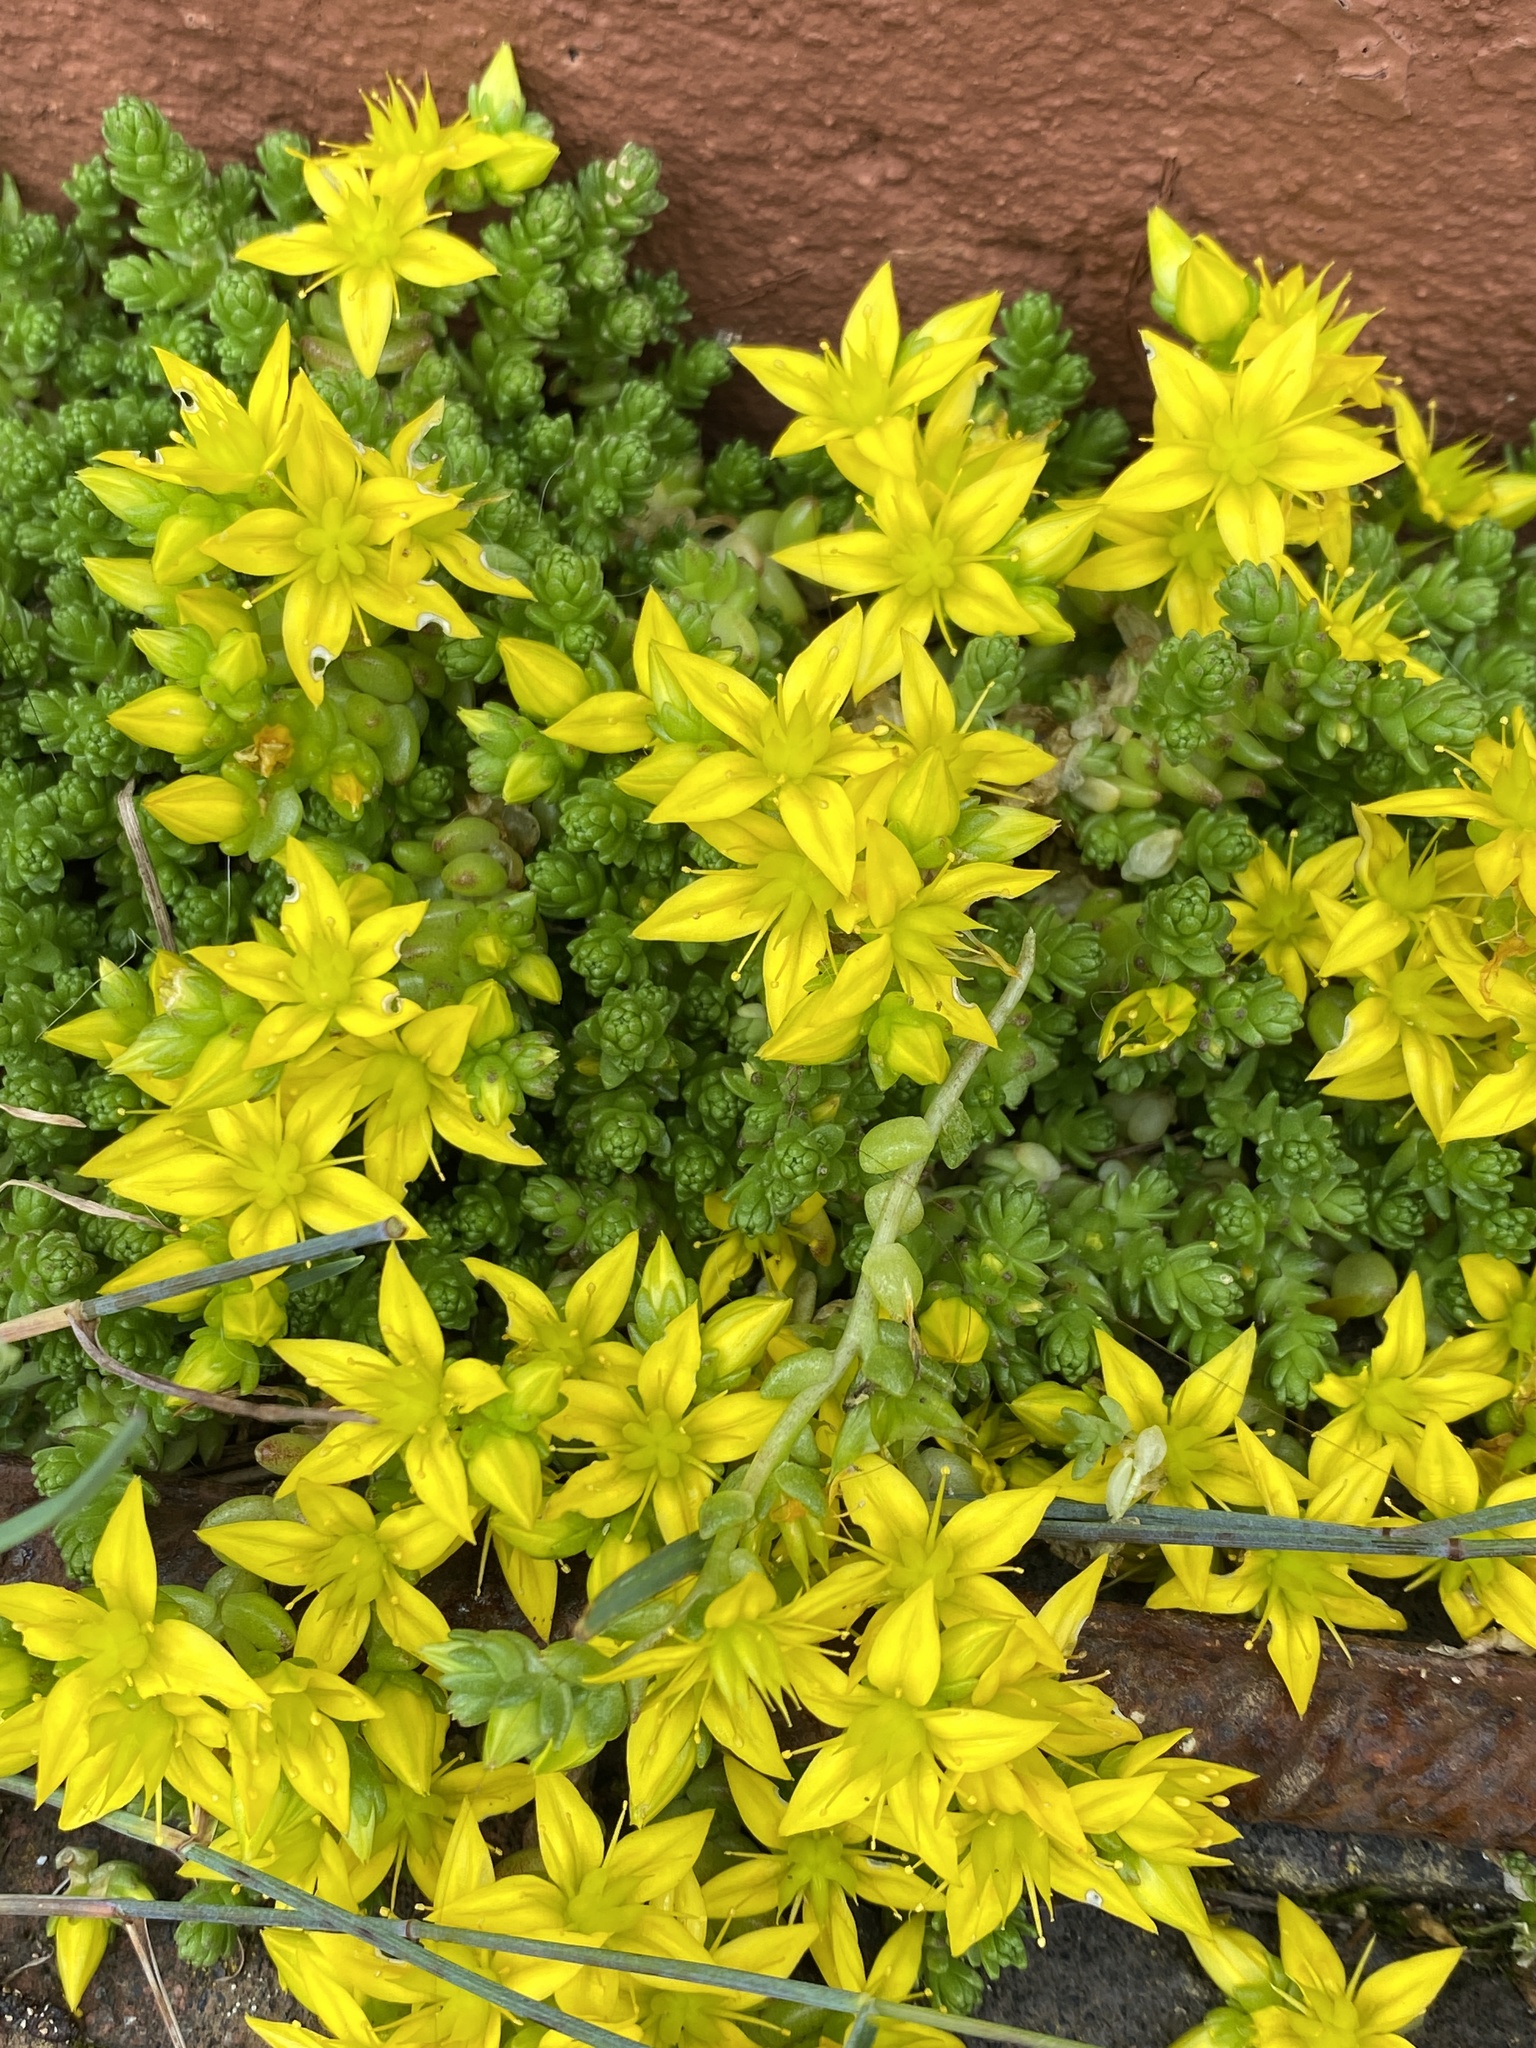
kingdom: Plantae
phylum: Tracheophyta
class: Magnoliopsida
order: Saxifragales
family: Crassulaceae
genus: Sedum
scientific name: Sedum acre
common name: Biting stonecrop
